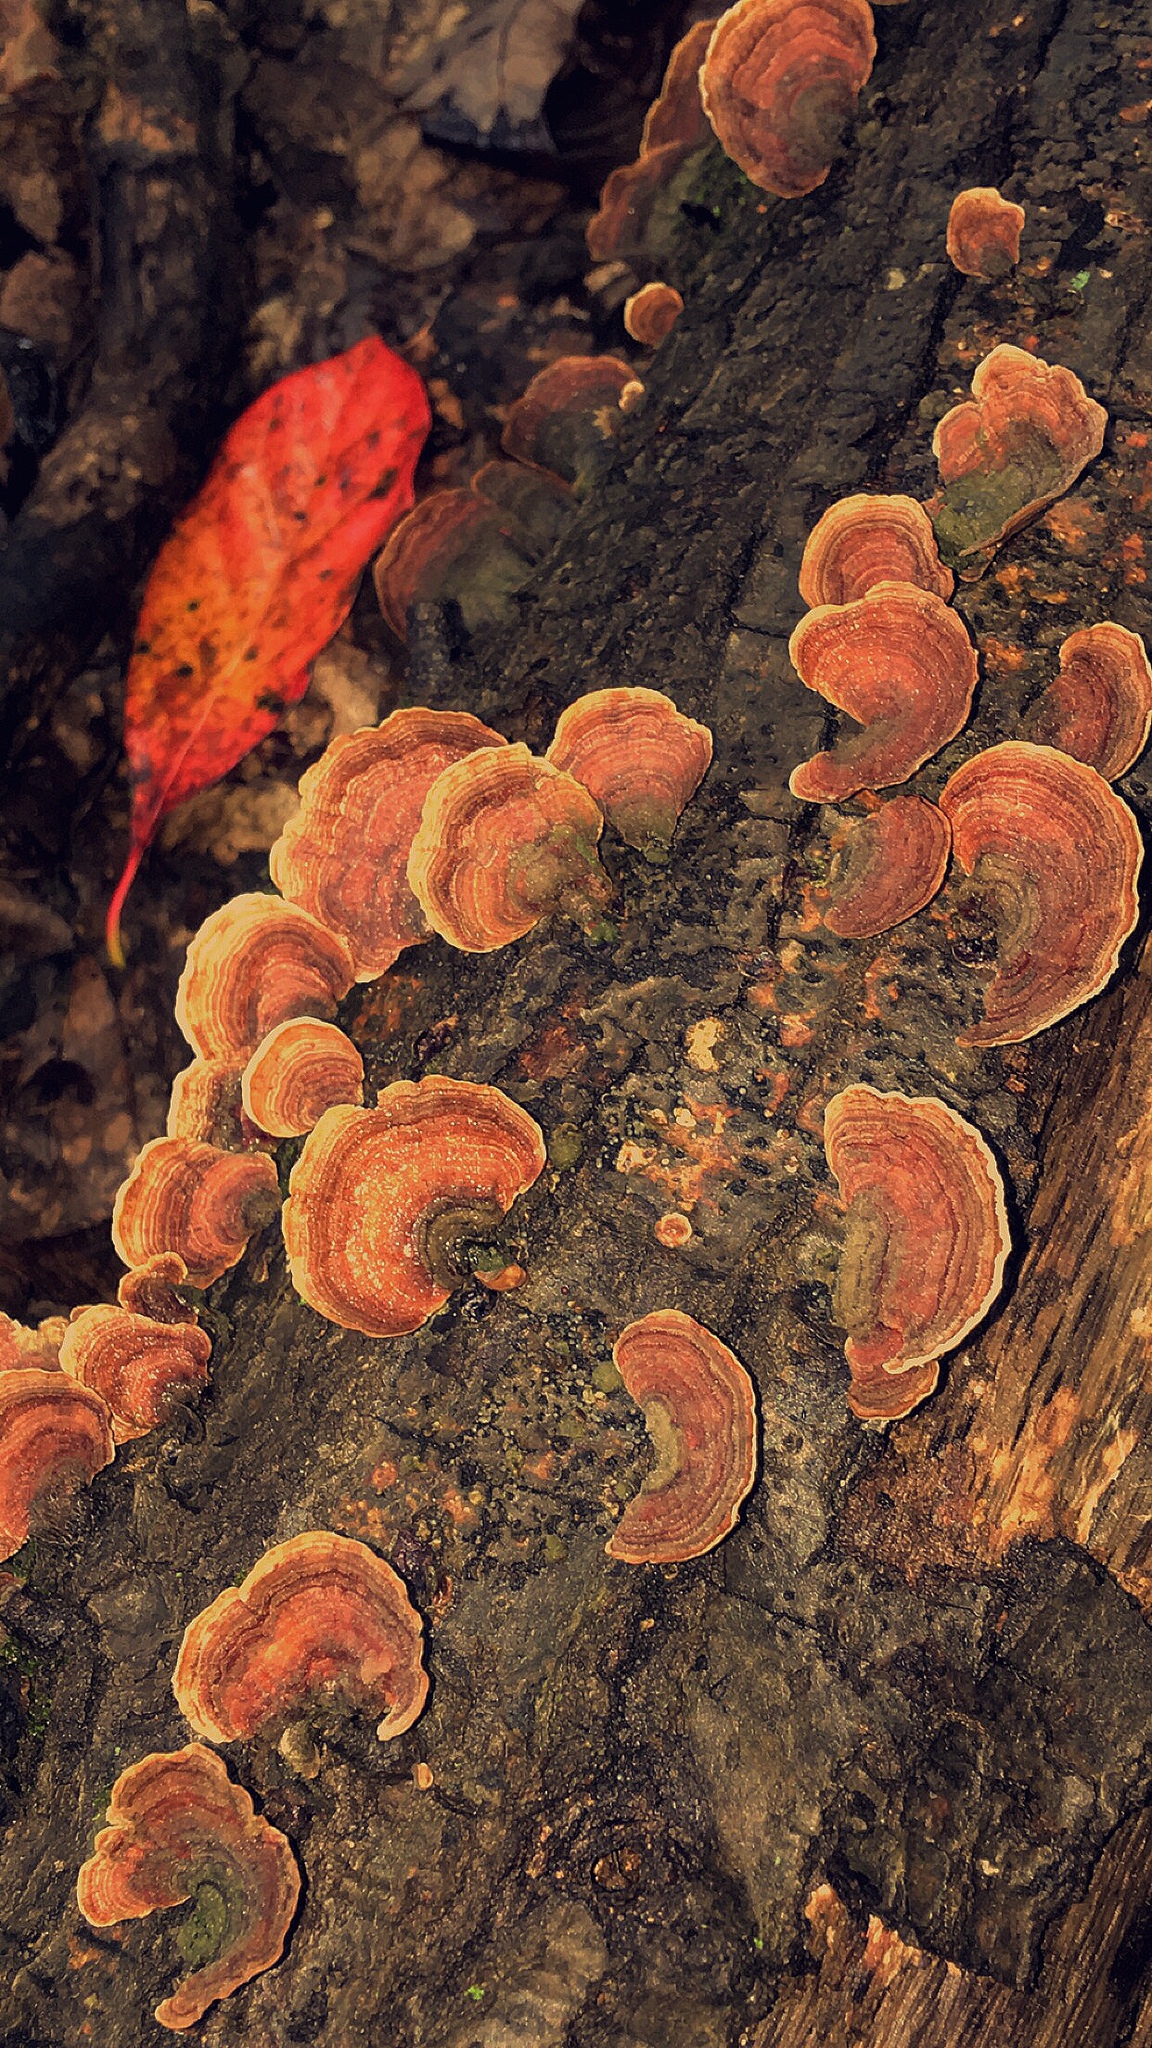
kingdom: Fungi
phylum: Basidiomycota
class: Agaricomycetes
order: Russulales
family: Stereaceae
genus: Stereum
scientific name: Stereum ostrea
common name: False turkeytail
